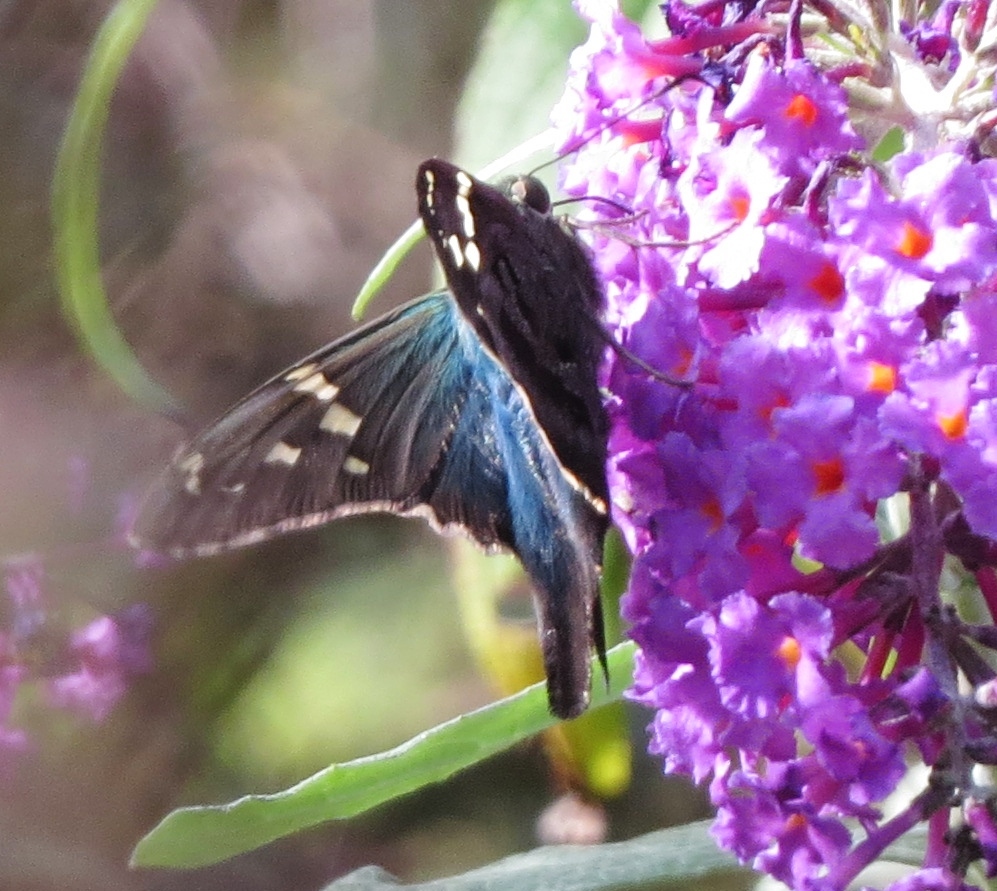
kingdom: Animalia
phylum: Arthropoda
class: Insecta
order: Lepidoptera
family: Hesperiidae
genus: Urbanus
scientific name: Urbanus proteus
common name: Long-tailed skipper
